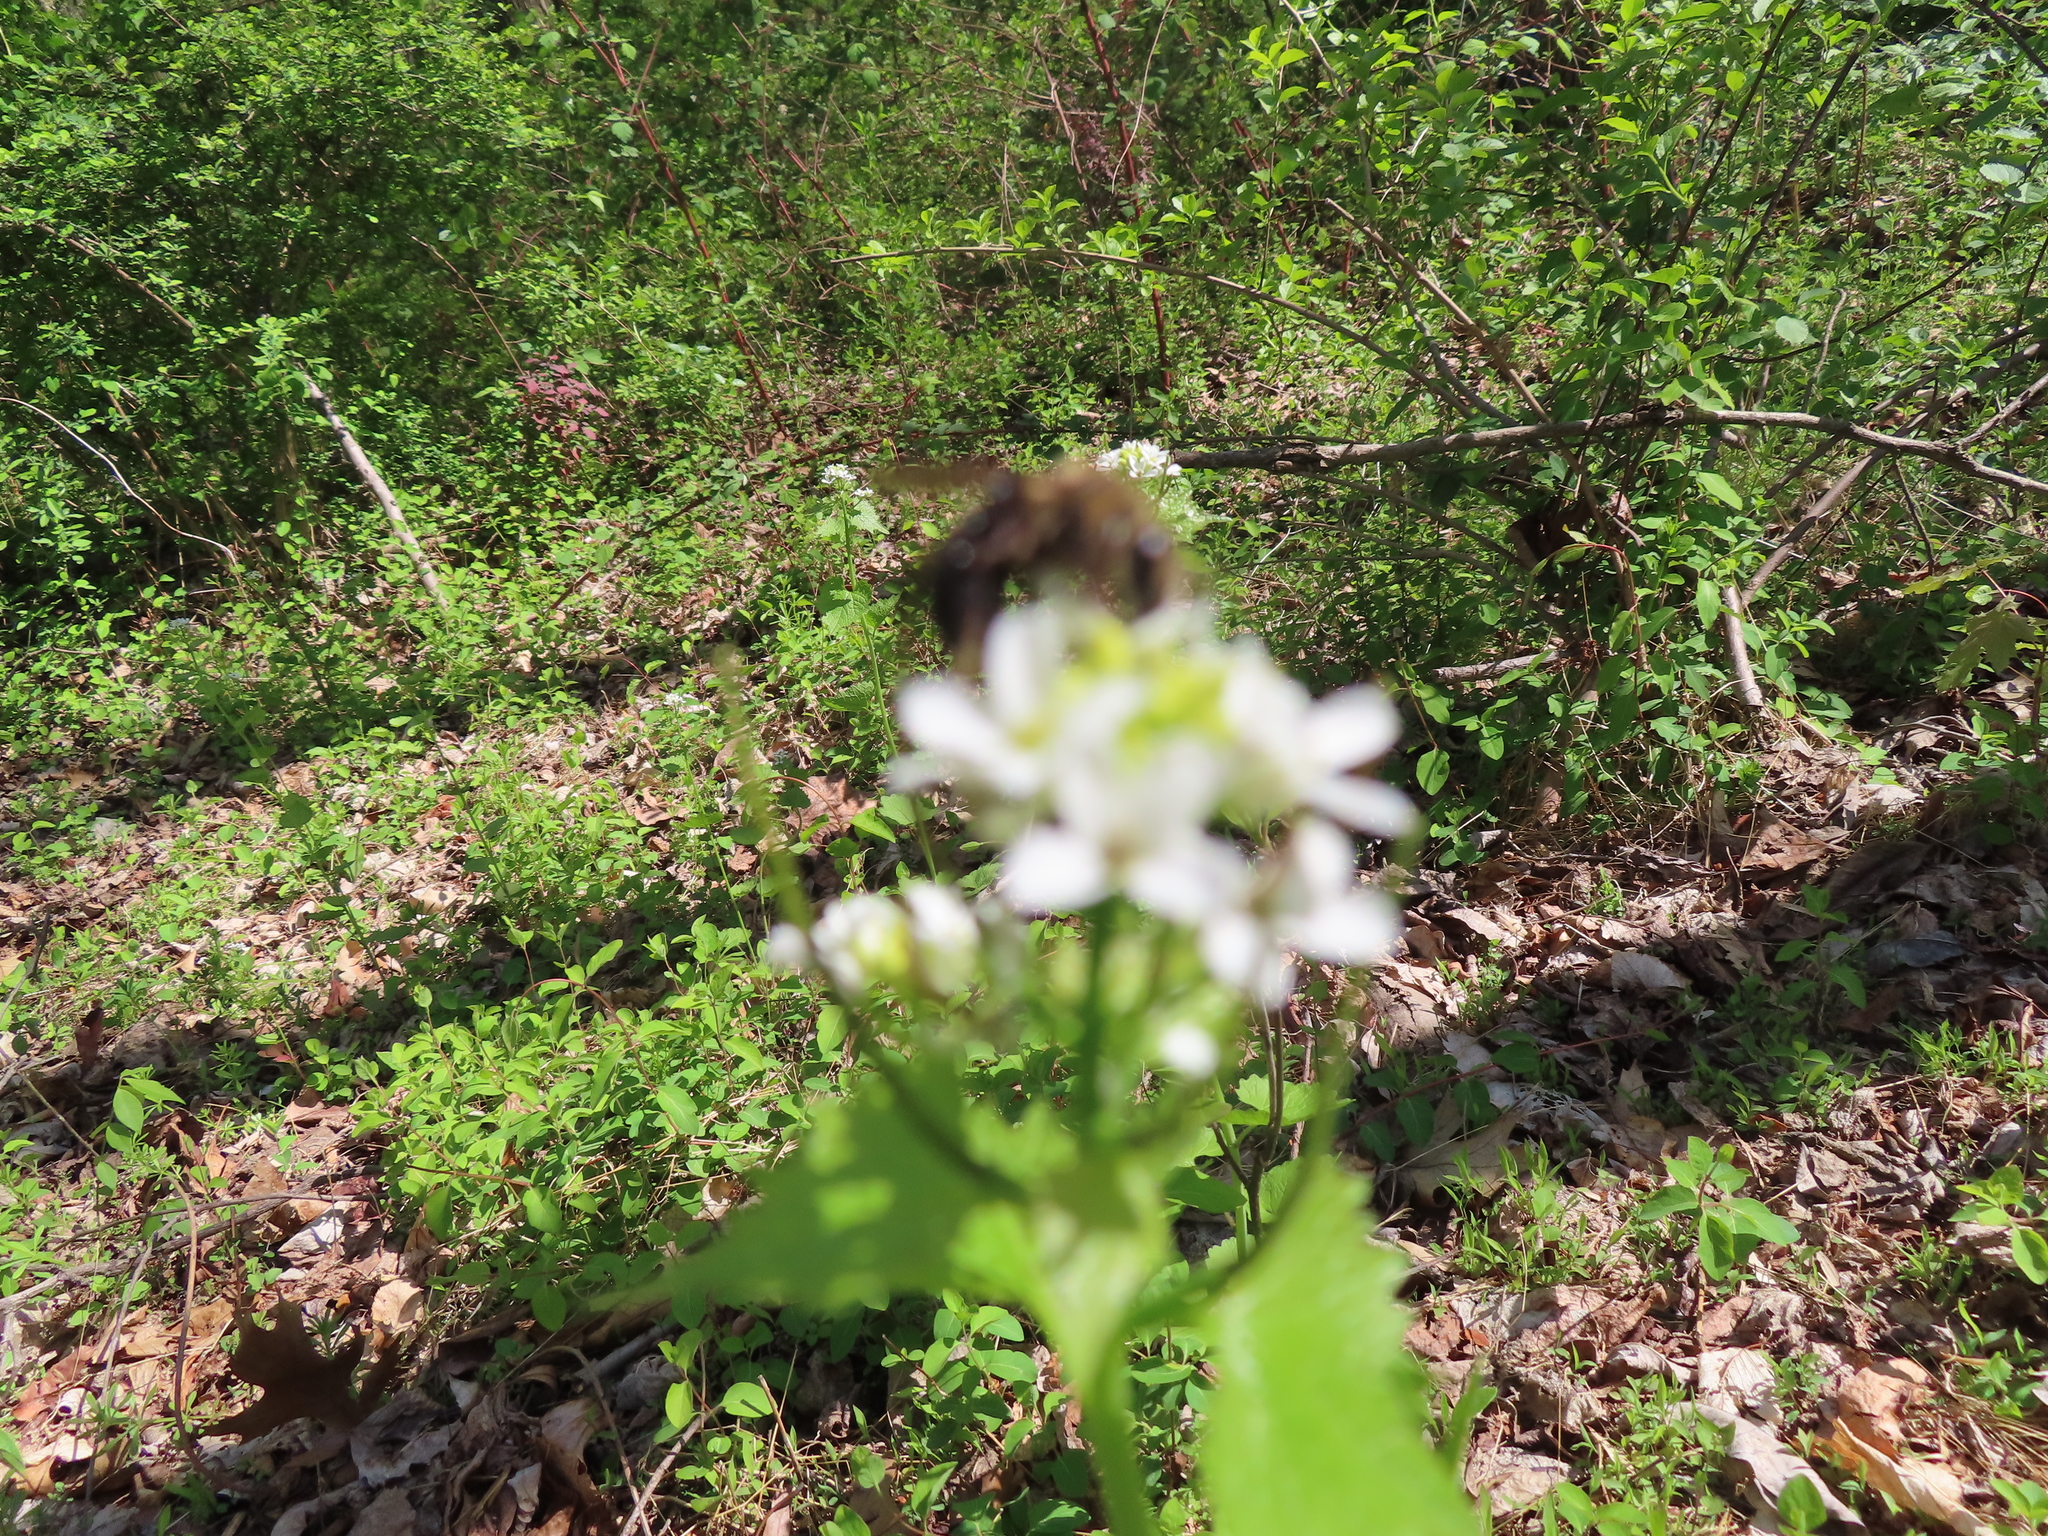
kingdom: Plantae
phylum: Tracheophyta
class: Magnoliopsida
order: Brassicales
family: Brassicaceae
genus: Alliaria
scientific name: Alliaria petiolata
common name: Garlic mustard
